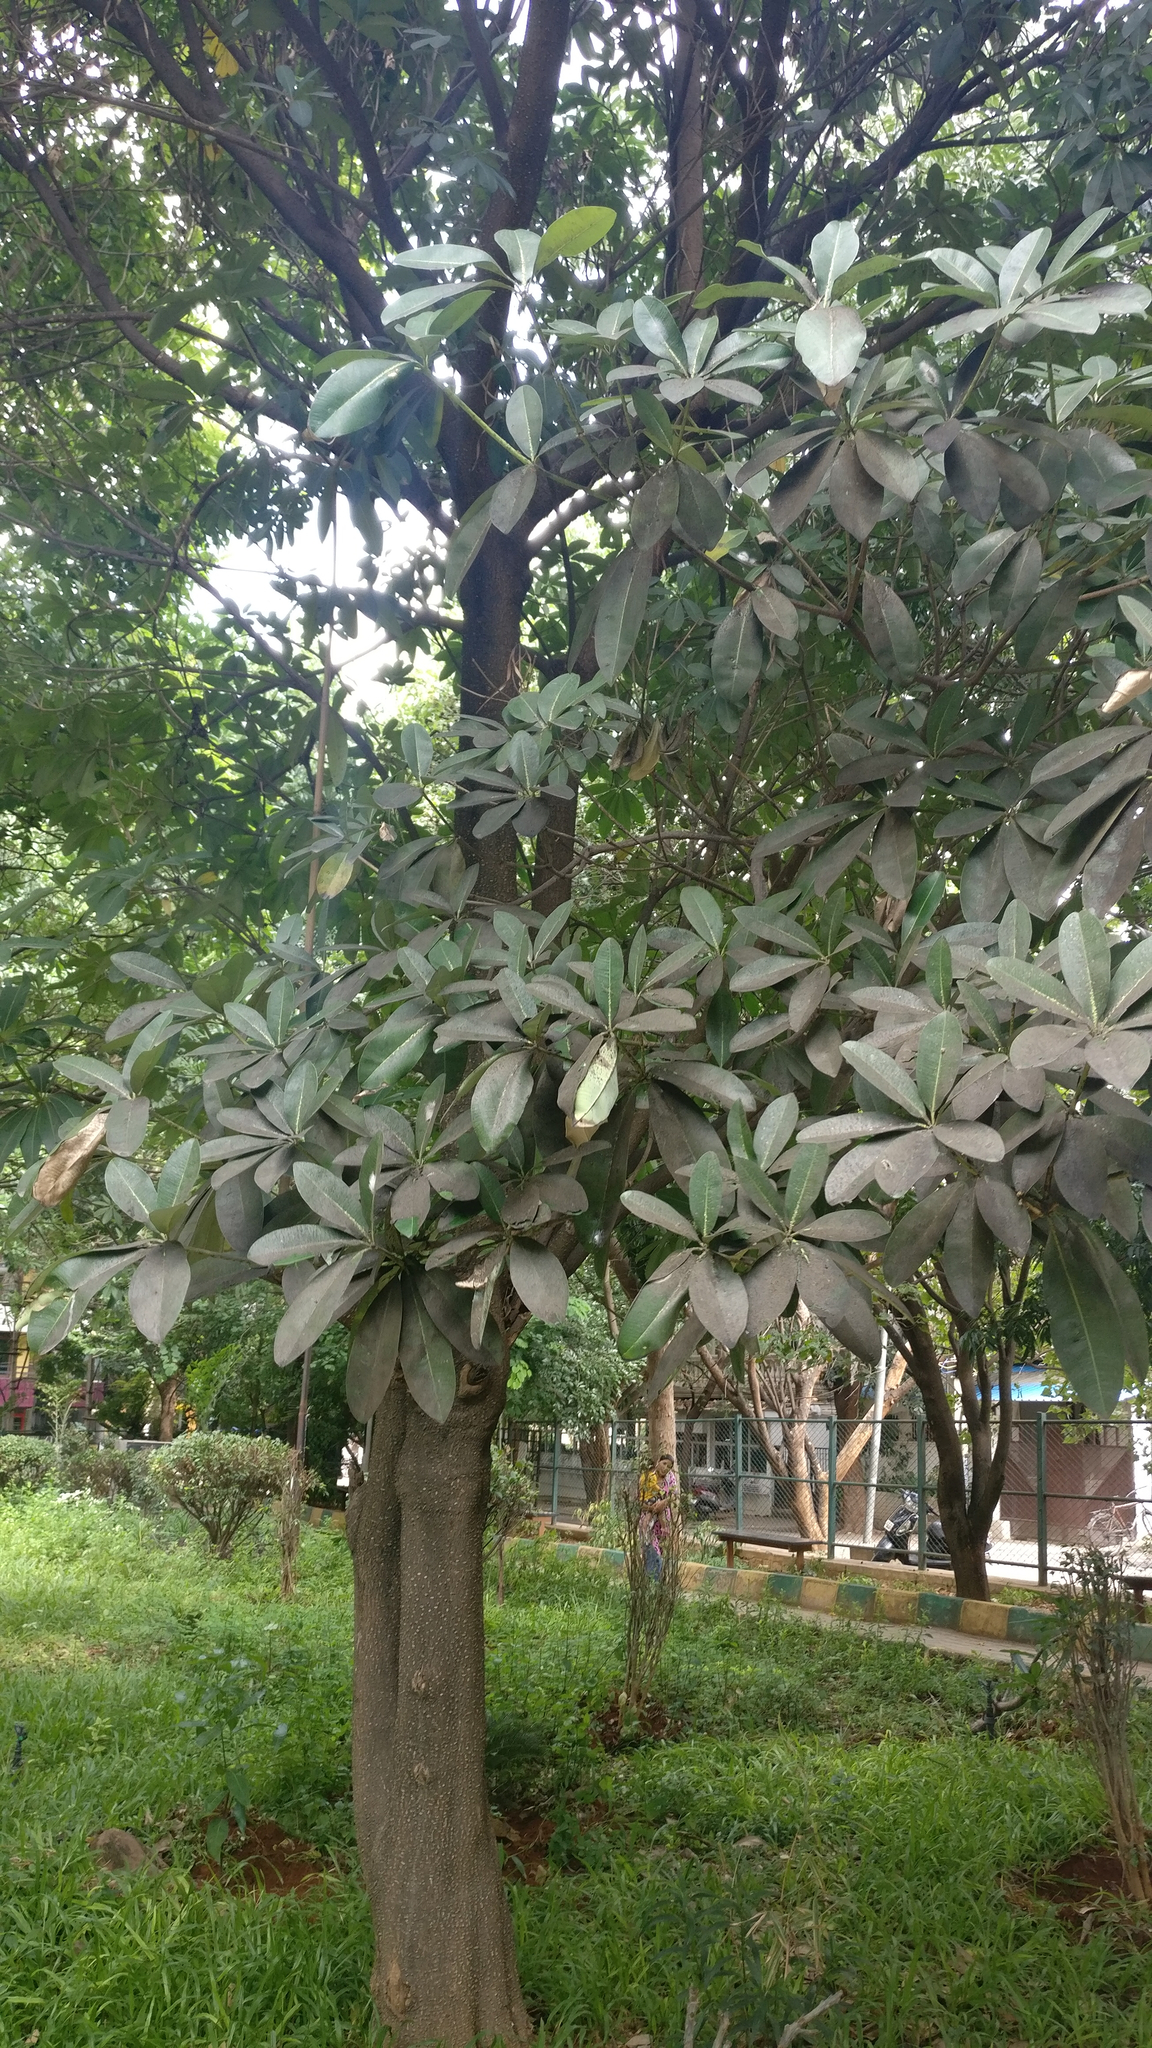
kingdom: Plantae
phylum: Tracheophyta
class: Magnoliopsida
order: Gentianales
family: Apocynaceae
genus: Alstonia
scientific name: Alstonia scholaris
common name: White cheesewood
